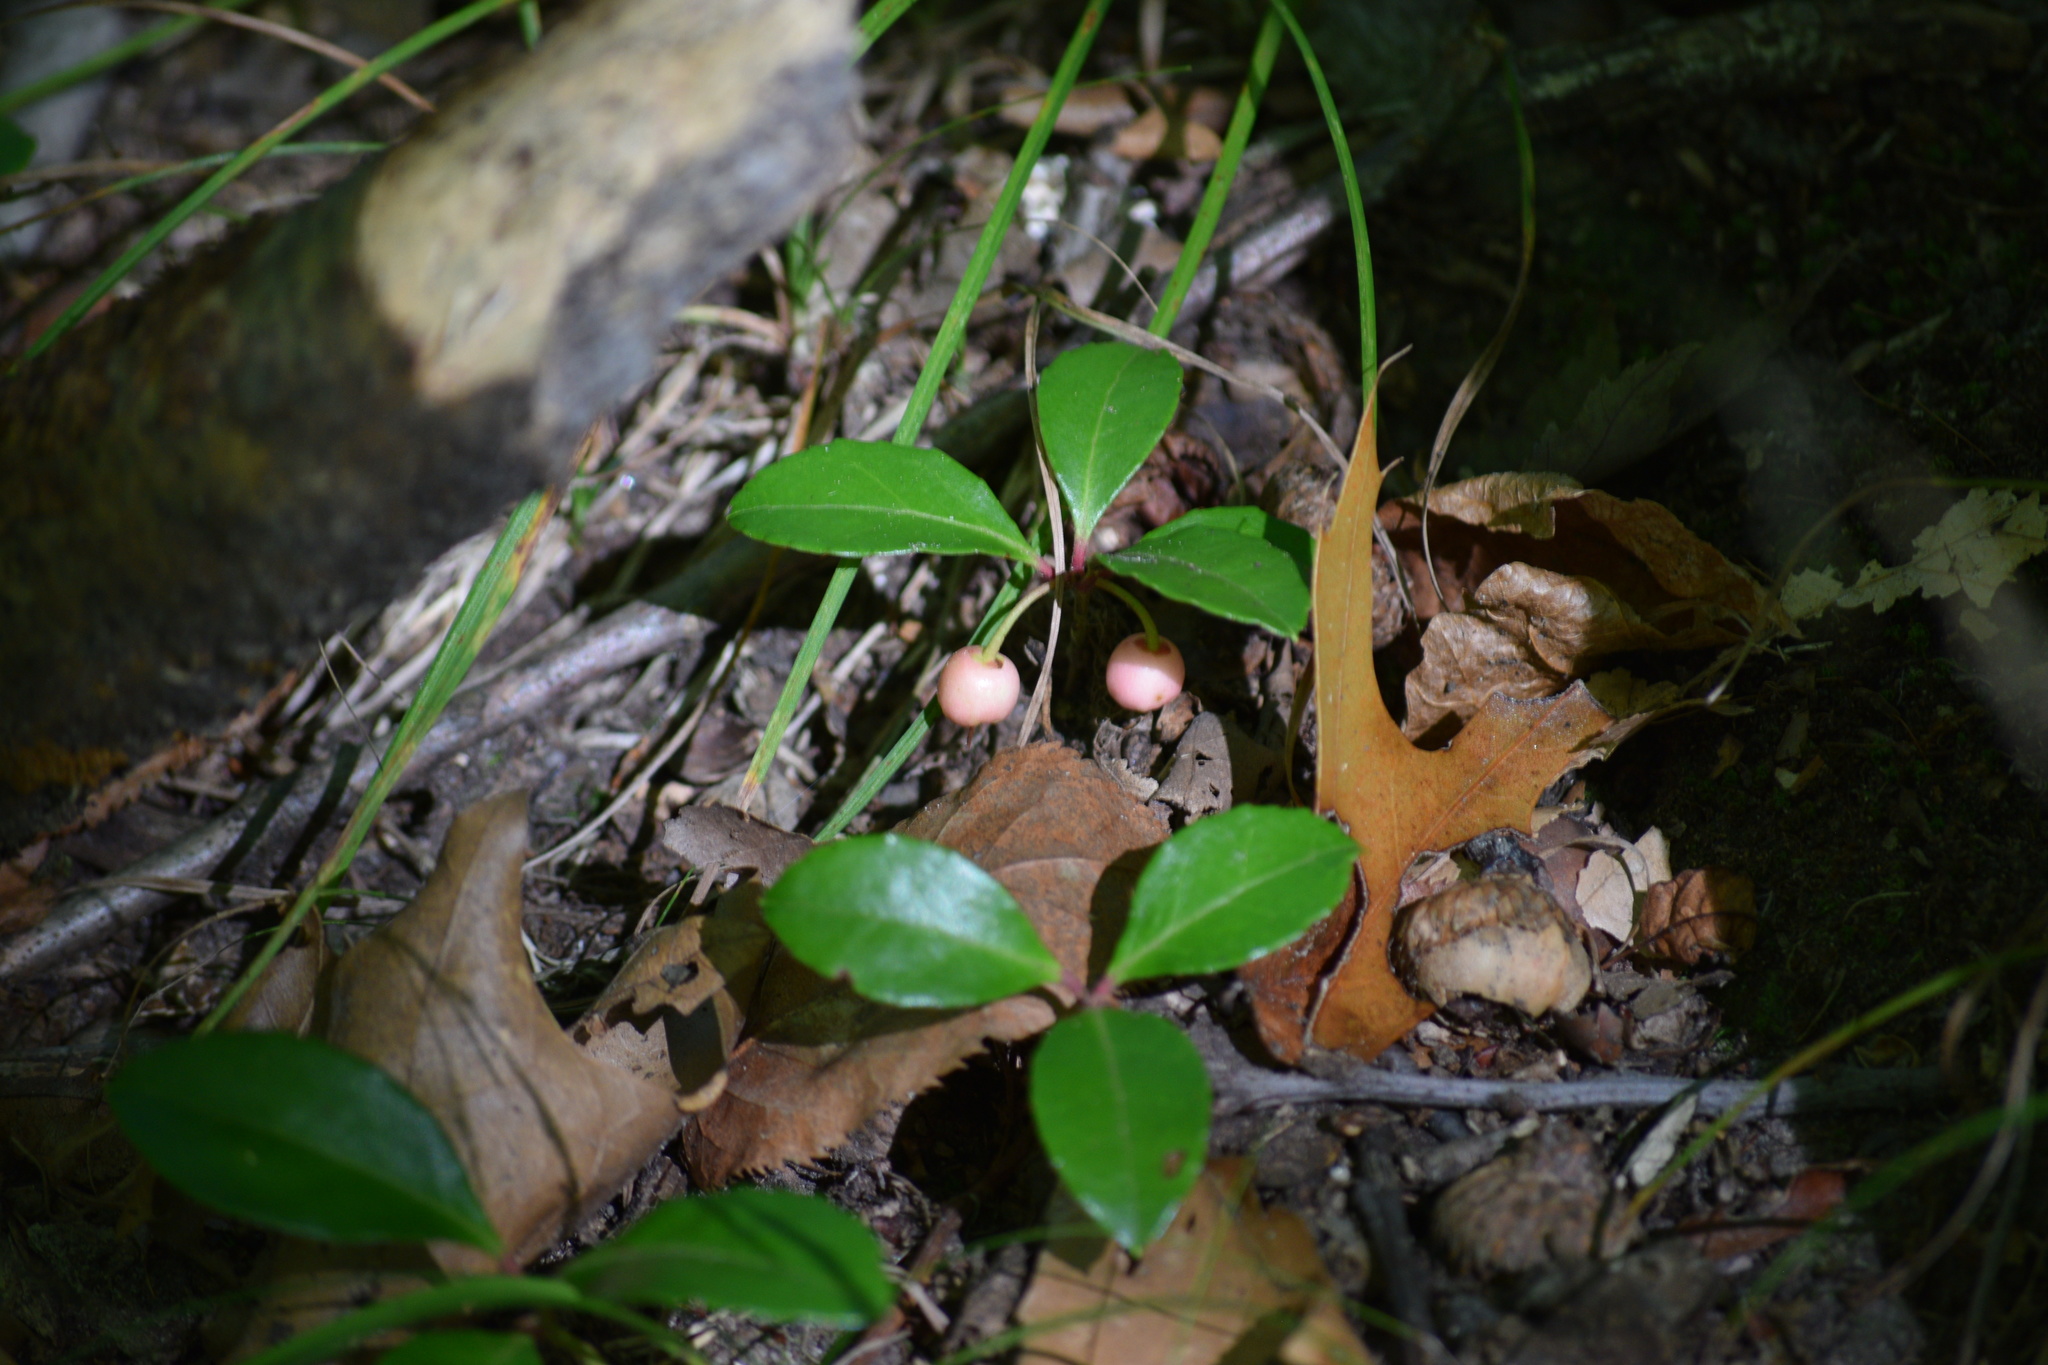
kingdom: Plantae
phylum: Tracheophyta
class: Magnoliopsida
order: Ericales
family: Ericaceae
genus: Gaultheria
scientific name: Gaultheria procumbens
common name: Checkerberry
